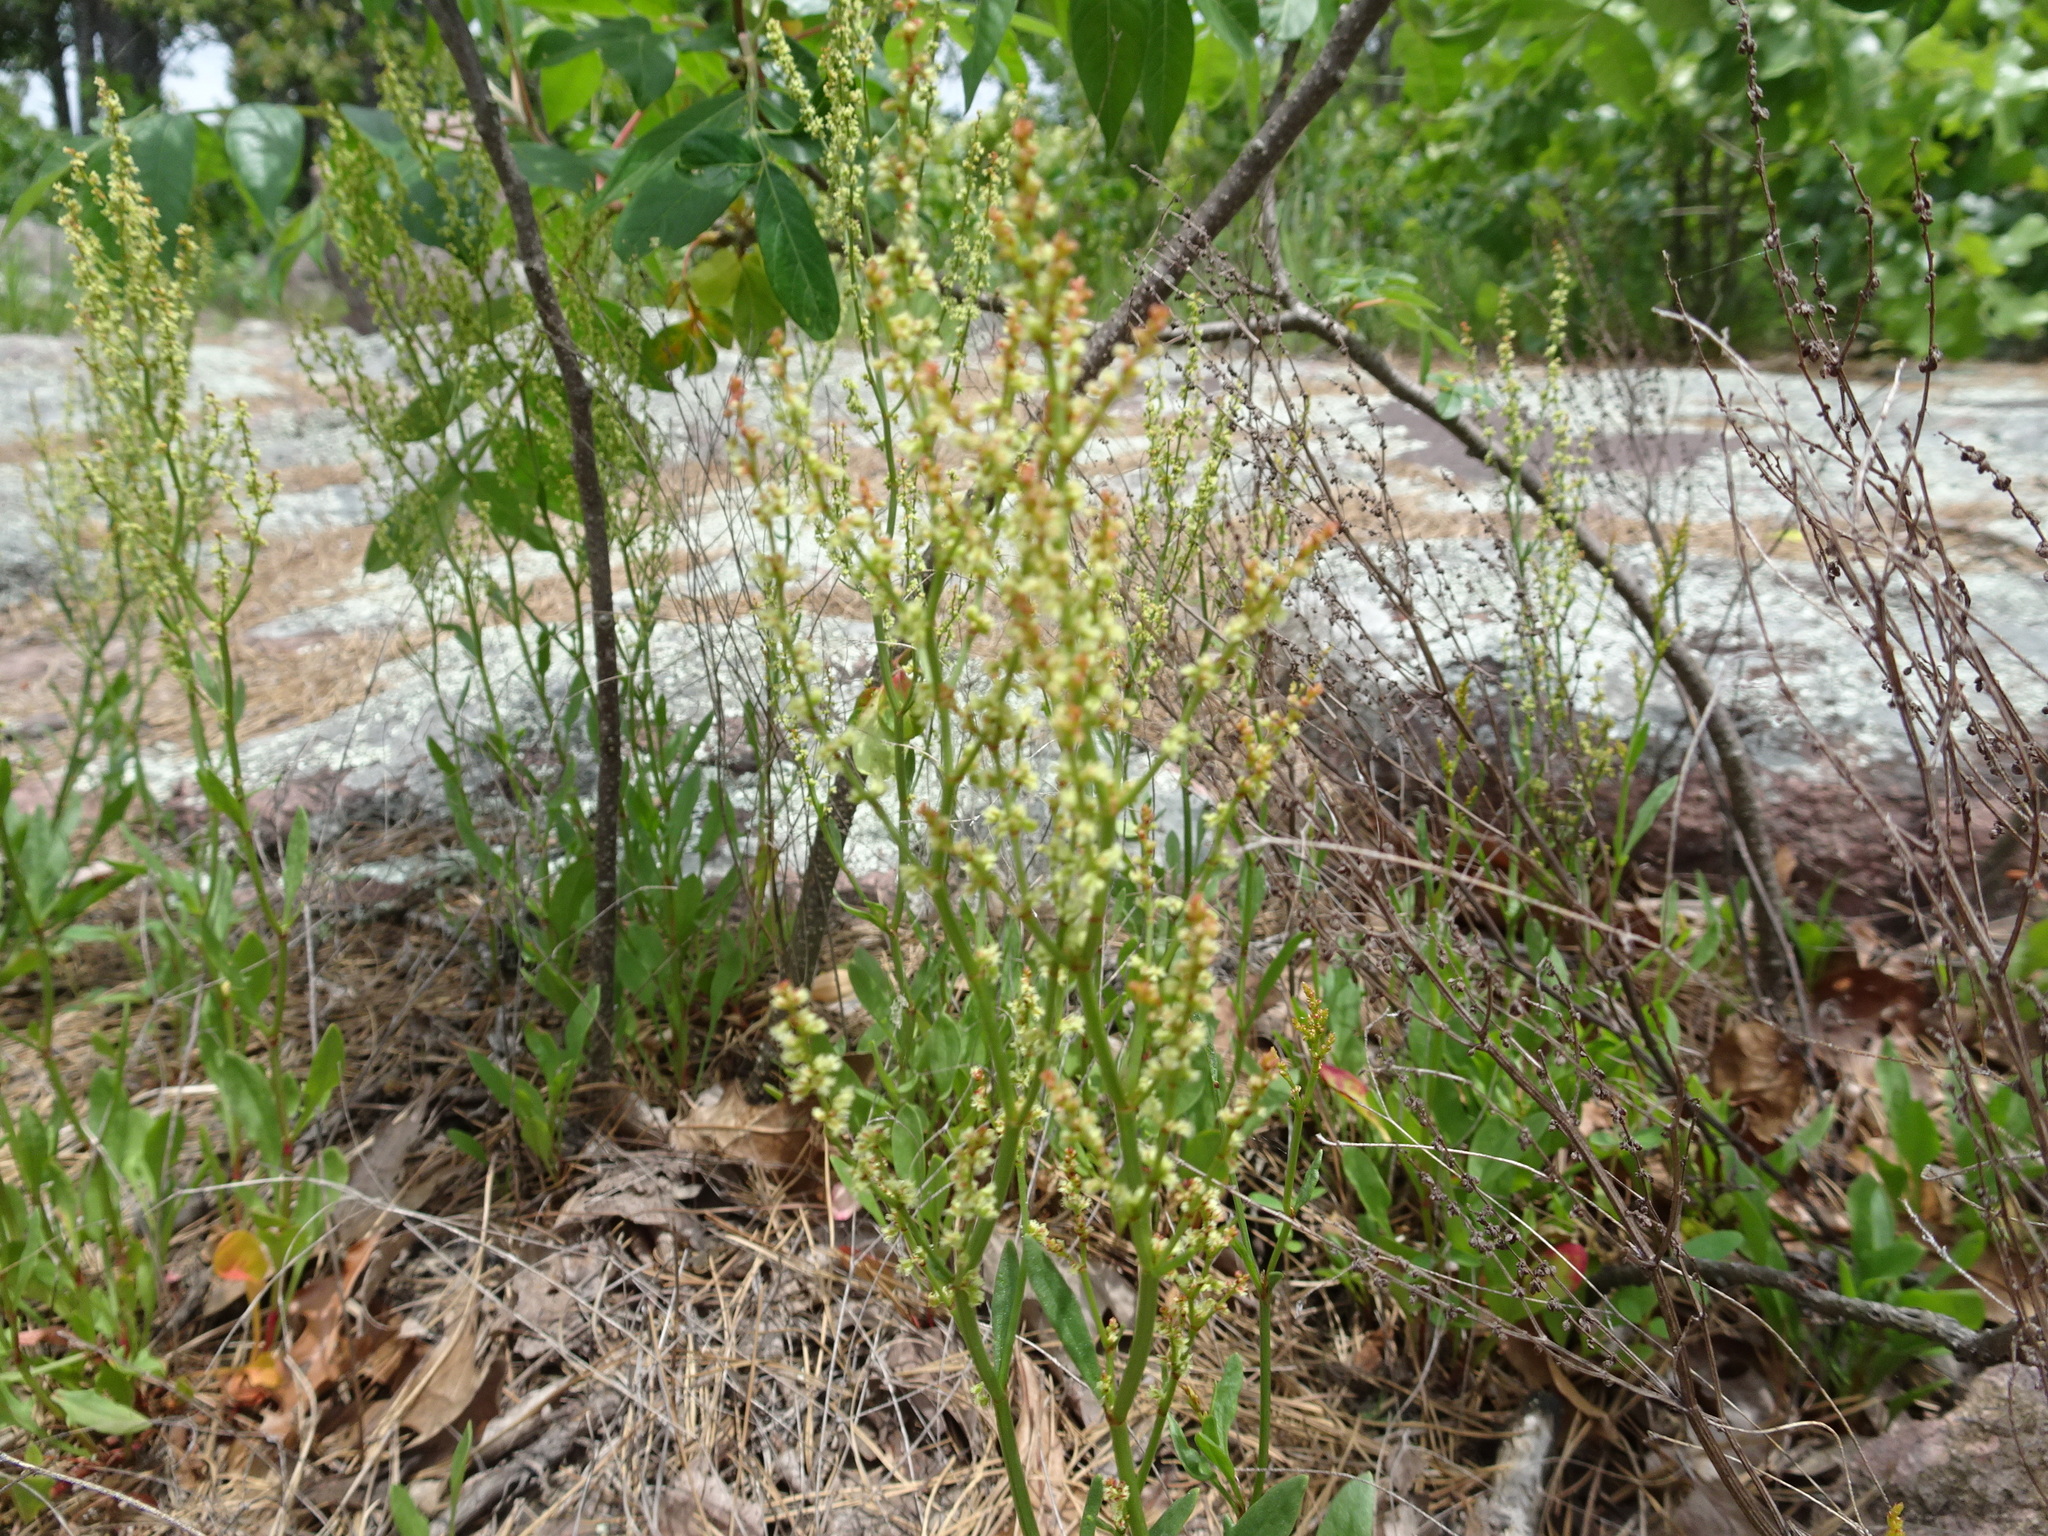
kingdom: Plantae
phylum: Tracheophyta
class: Magnoliopsida
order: Caryophyllales
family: Polygonaceae
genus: Rumex
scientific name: Rumex acetosella
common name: Common sheep sorrel
